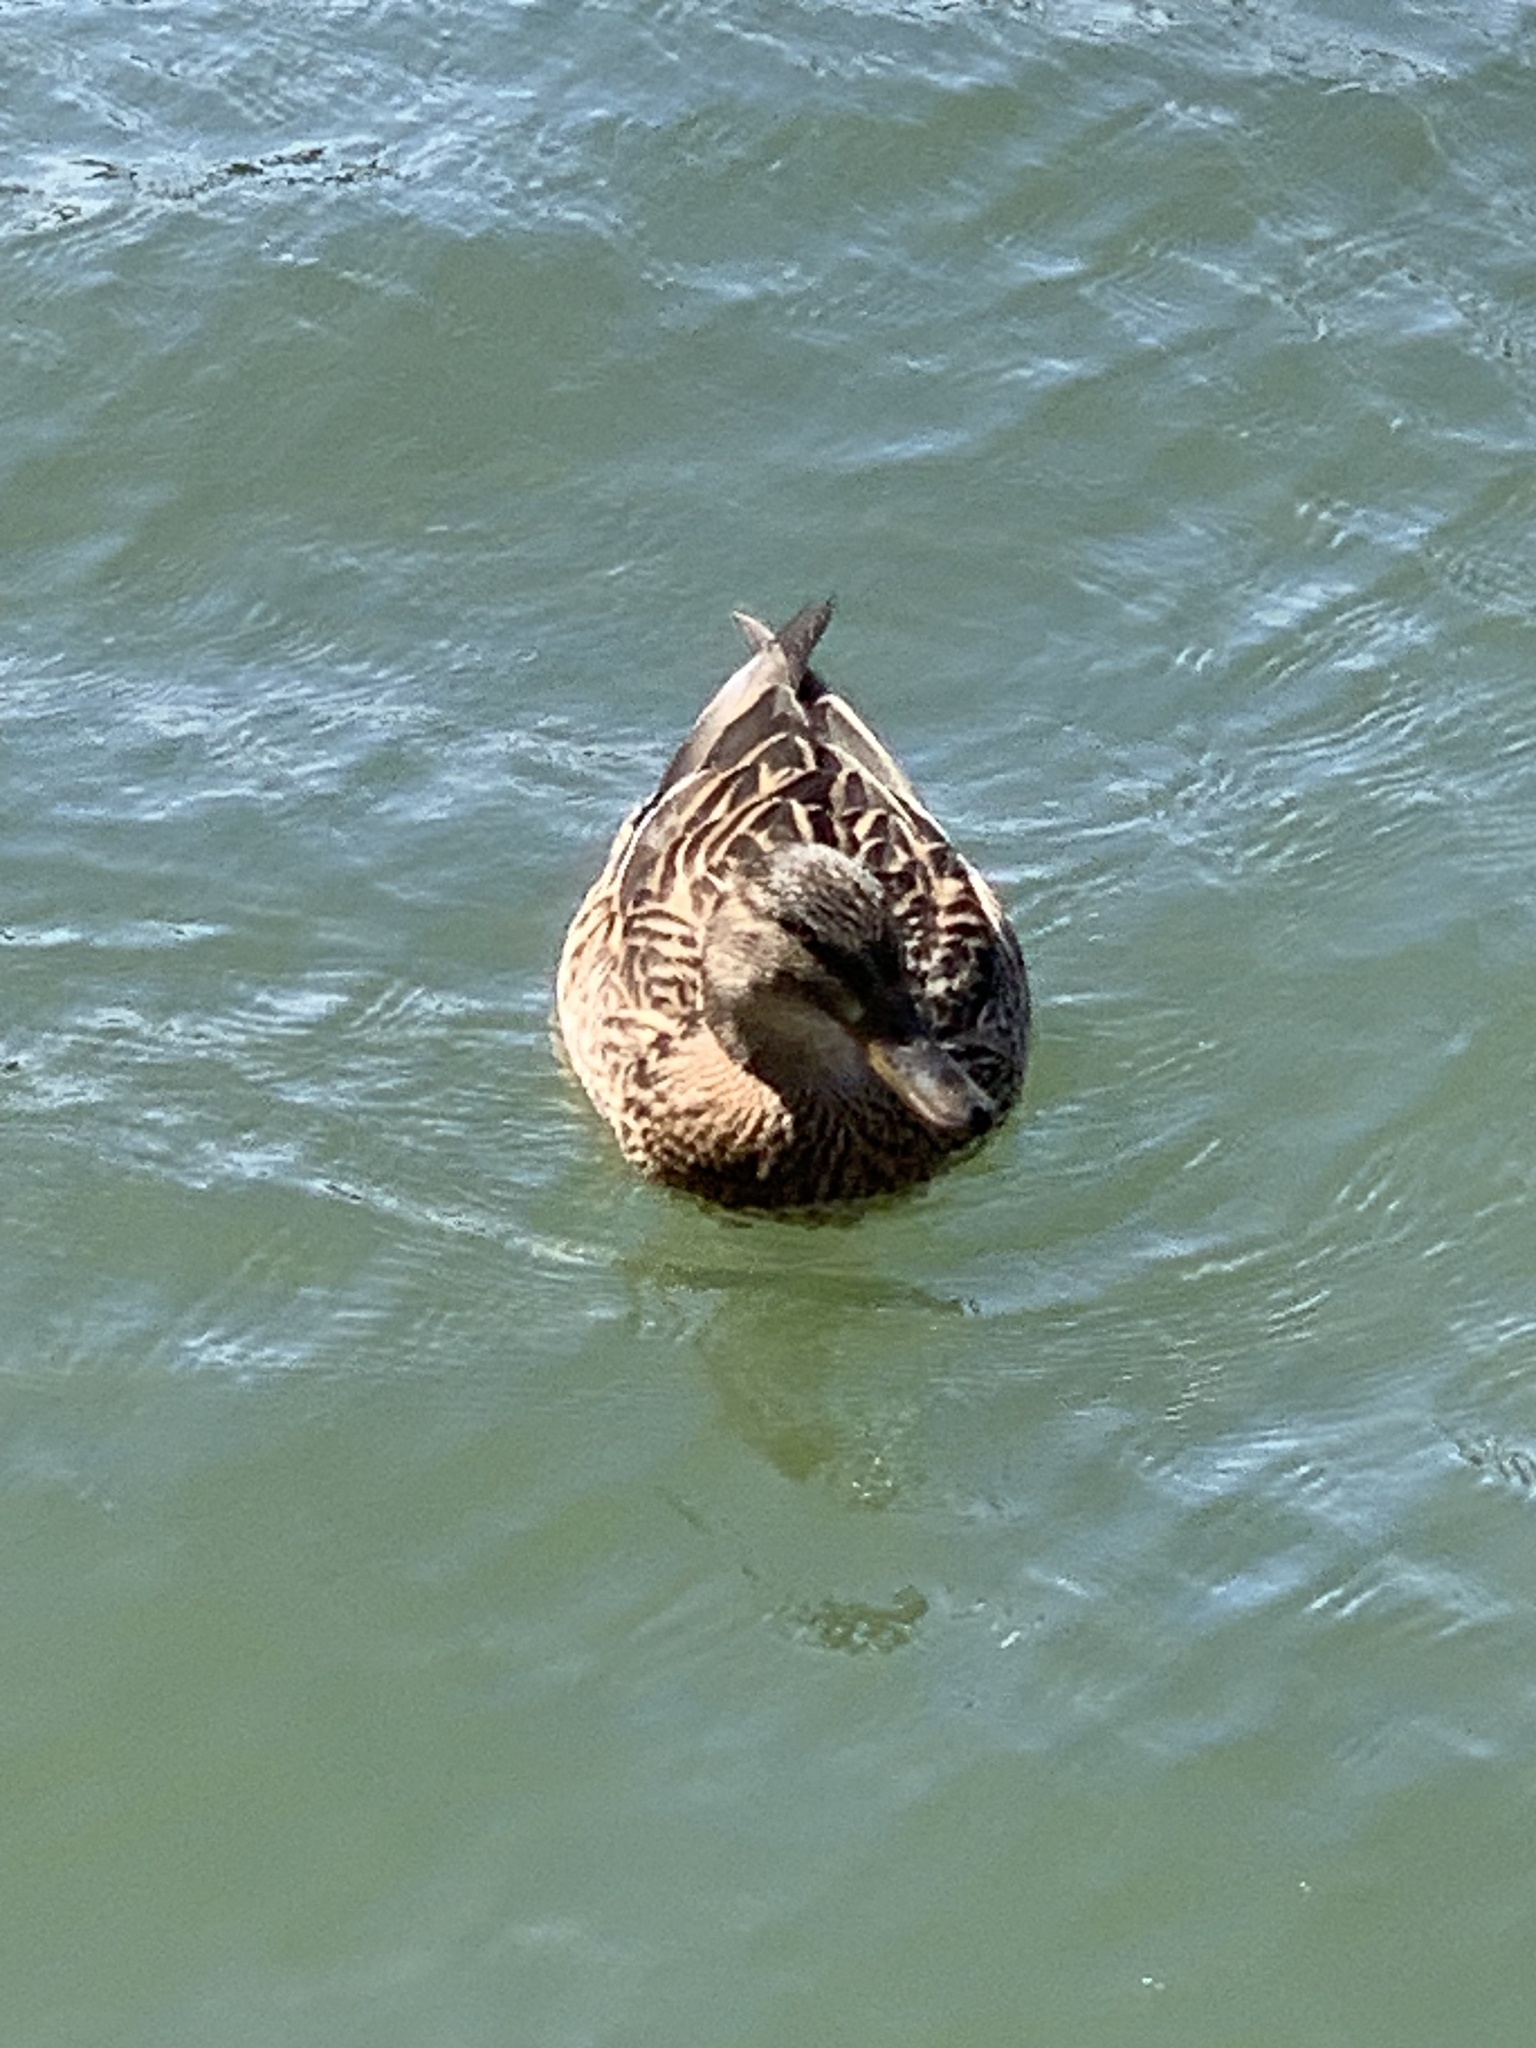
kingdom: Animalia
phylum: Chordata
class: Aves
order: Anseriformes
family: Anatidae
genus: Anas
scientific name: Anas platyrhynchos
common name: Mallard
